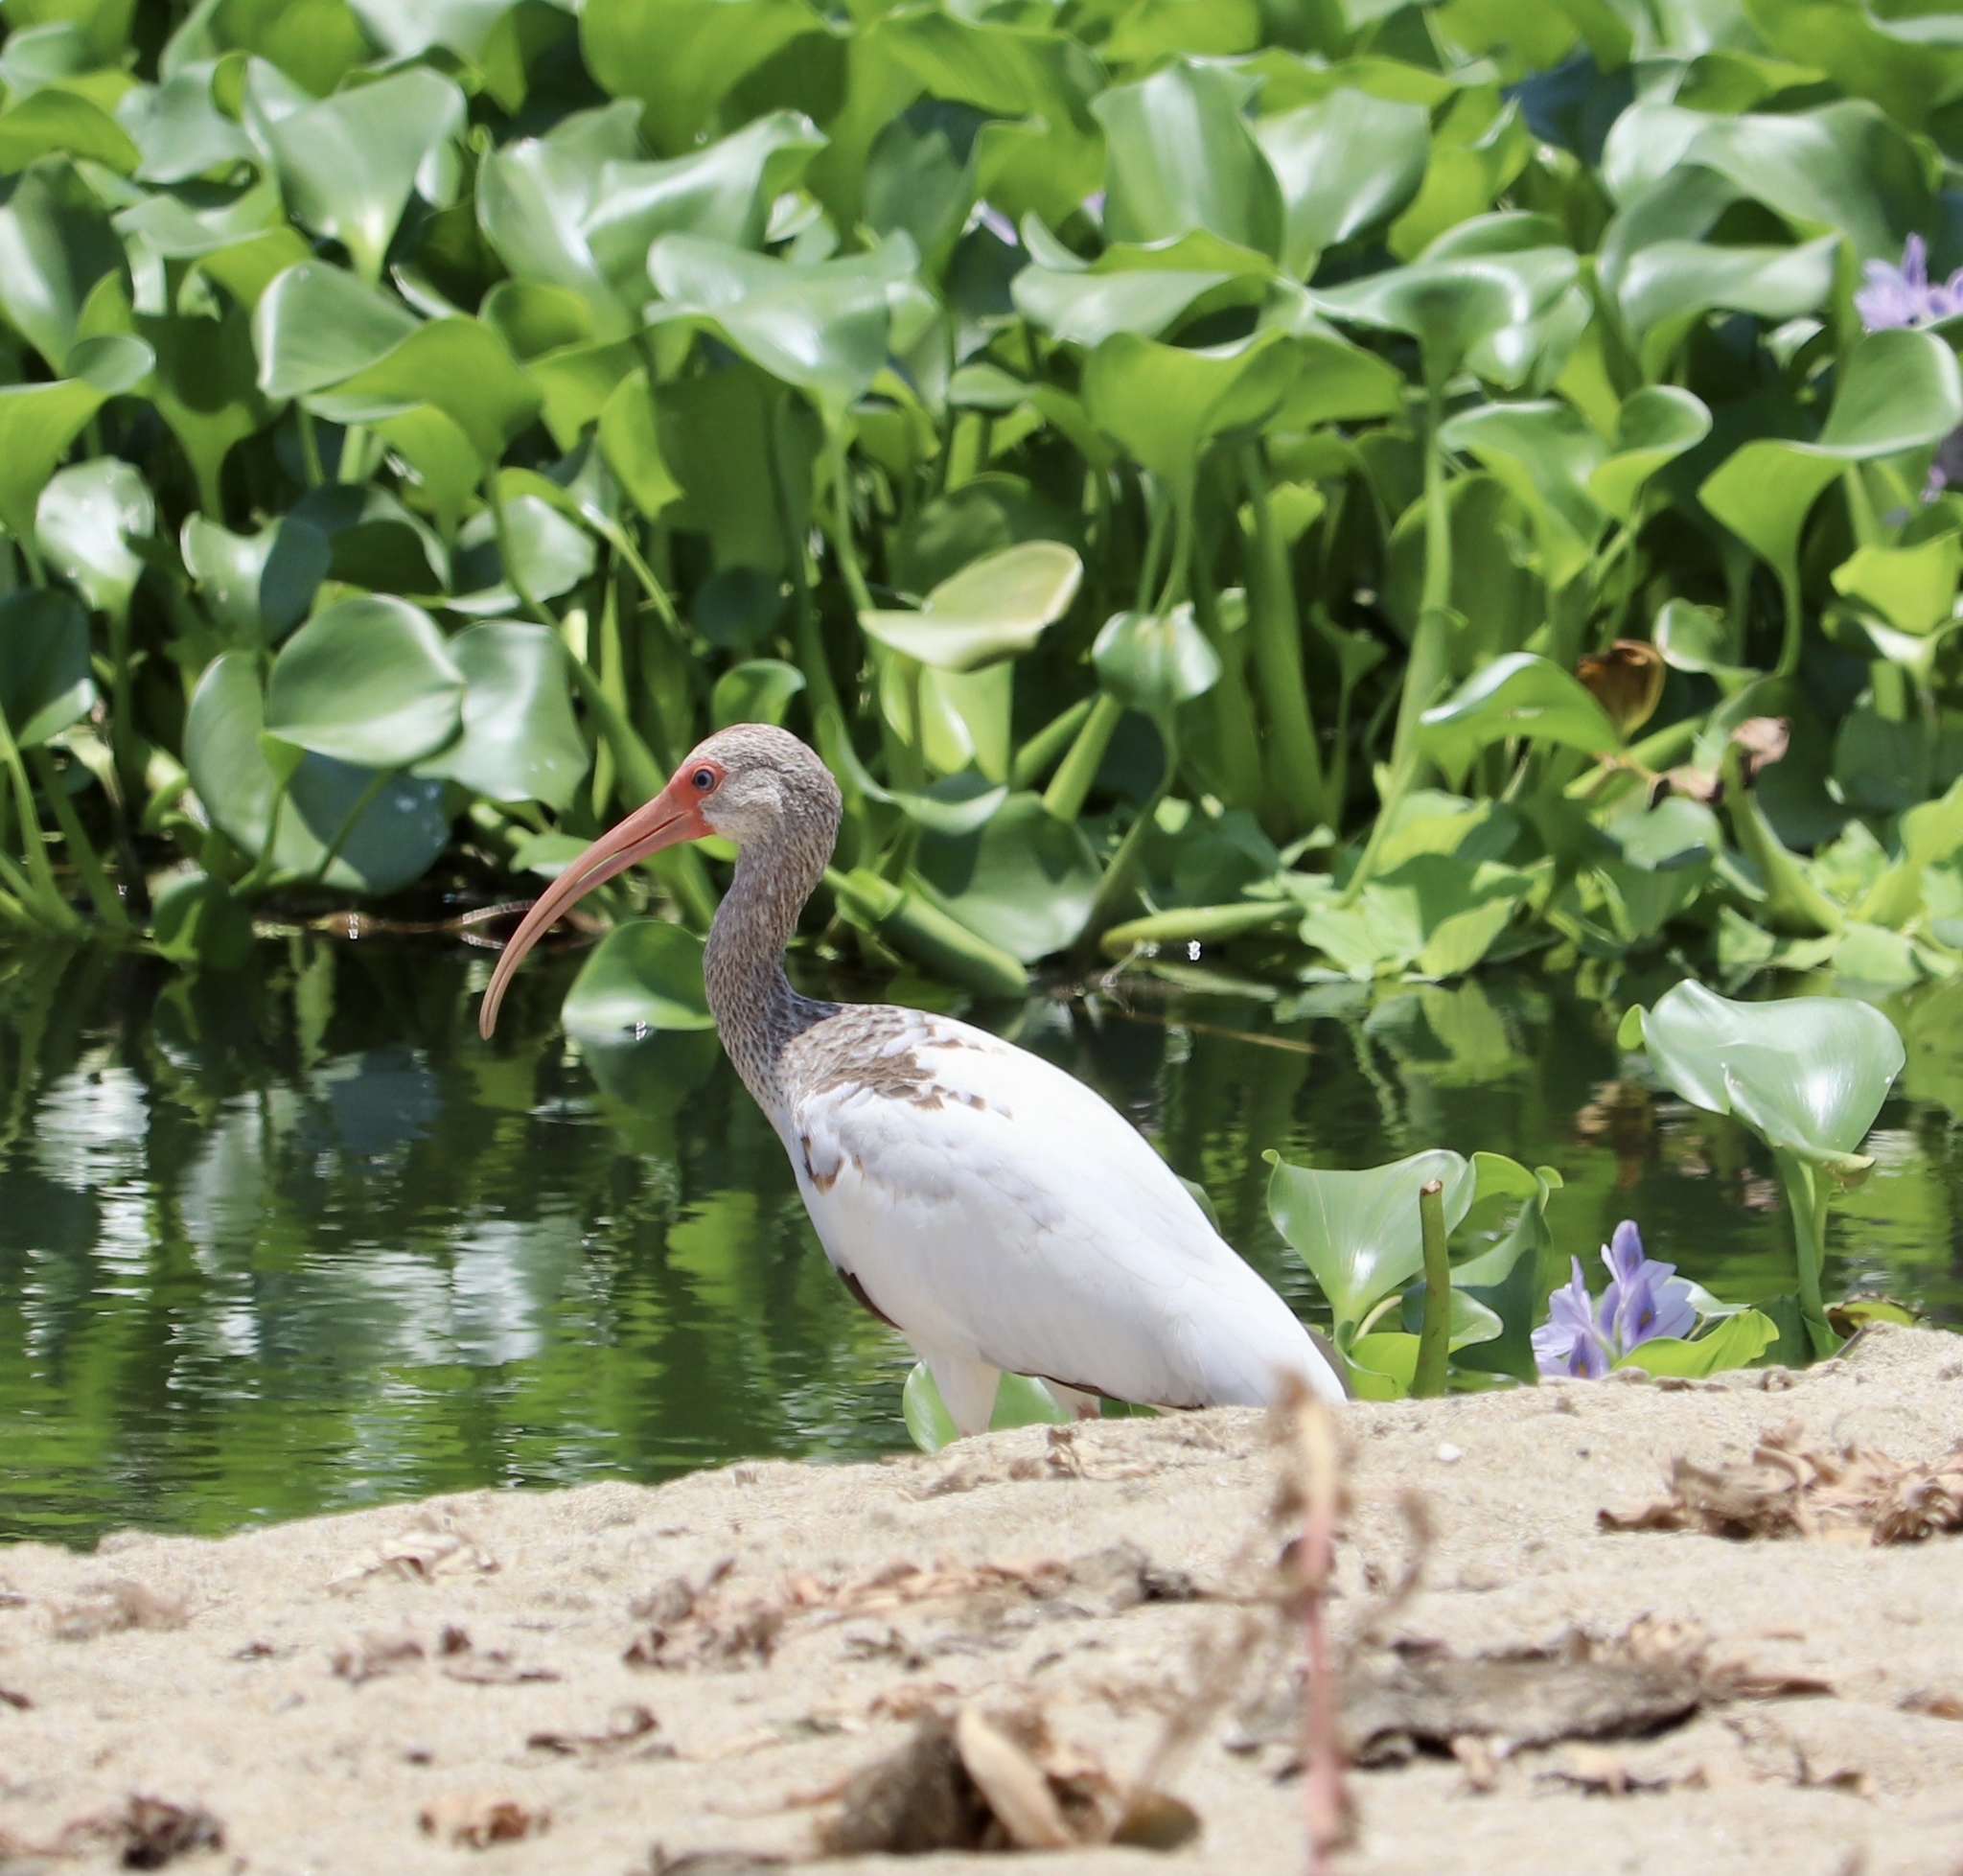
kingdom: Animalia
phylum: Chordata
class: Aves
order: Pelecaniformes
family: Threskiornithidae
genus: Eudocimus
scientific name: Eudocimus albus
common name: White ibis
